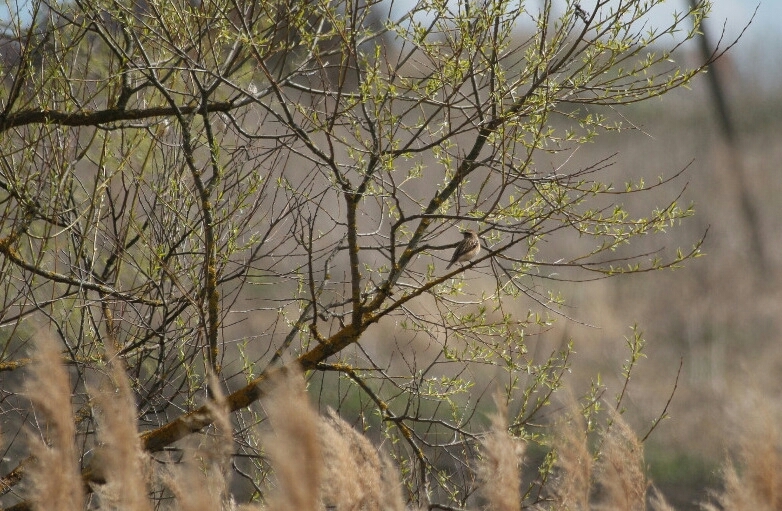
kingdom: Animalia
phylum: Chordata
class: Aves
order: Passeriformes
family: Acrocephalidae
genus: Acrocephalus
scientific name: Acrocephalus schoenobaenus
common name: Sedge warbler
